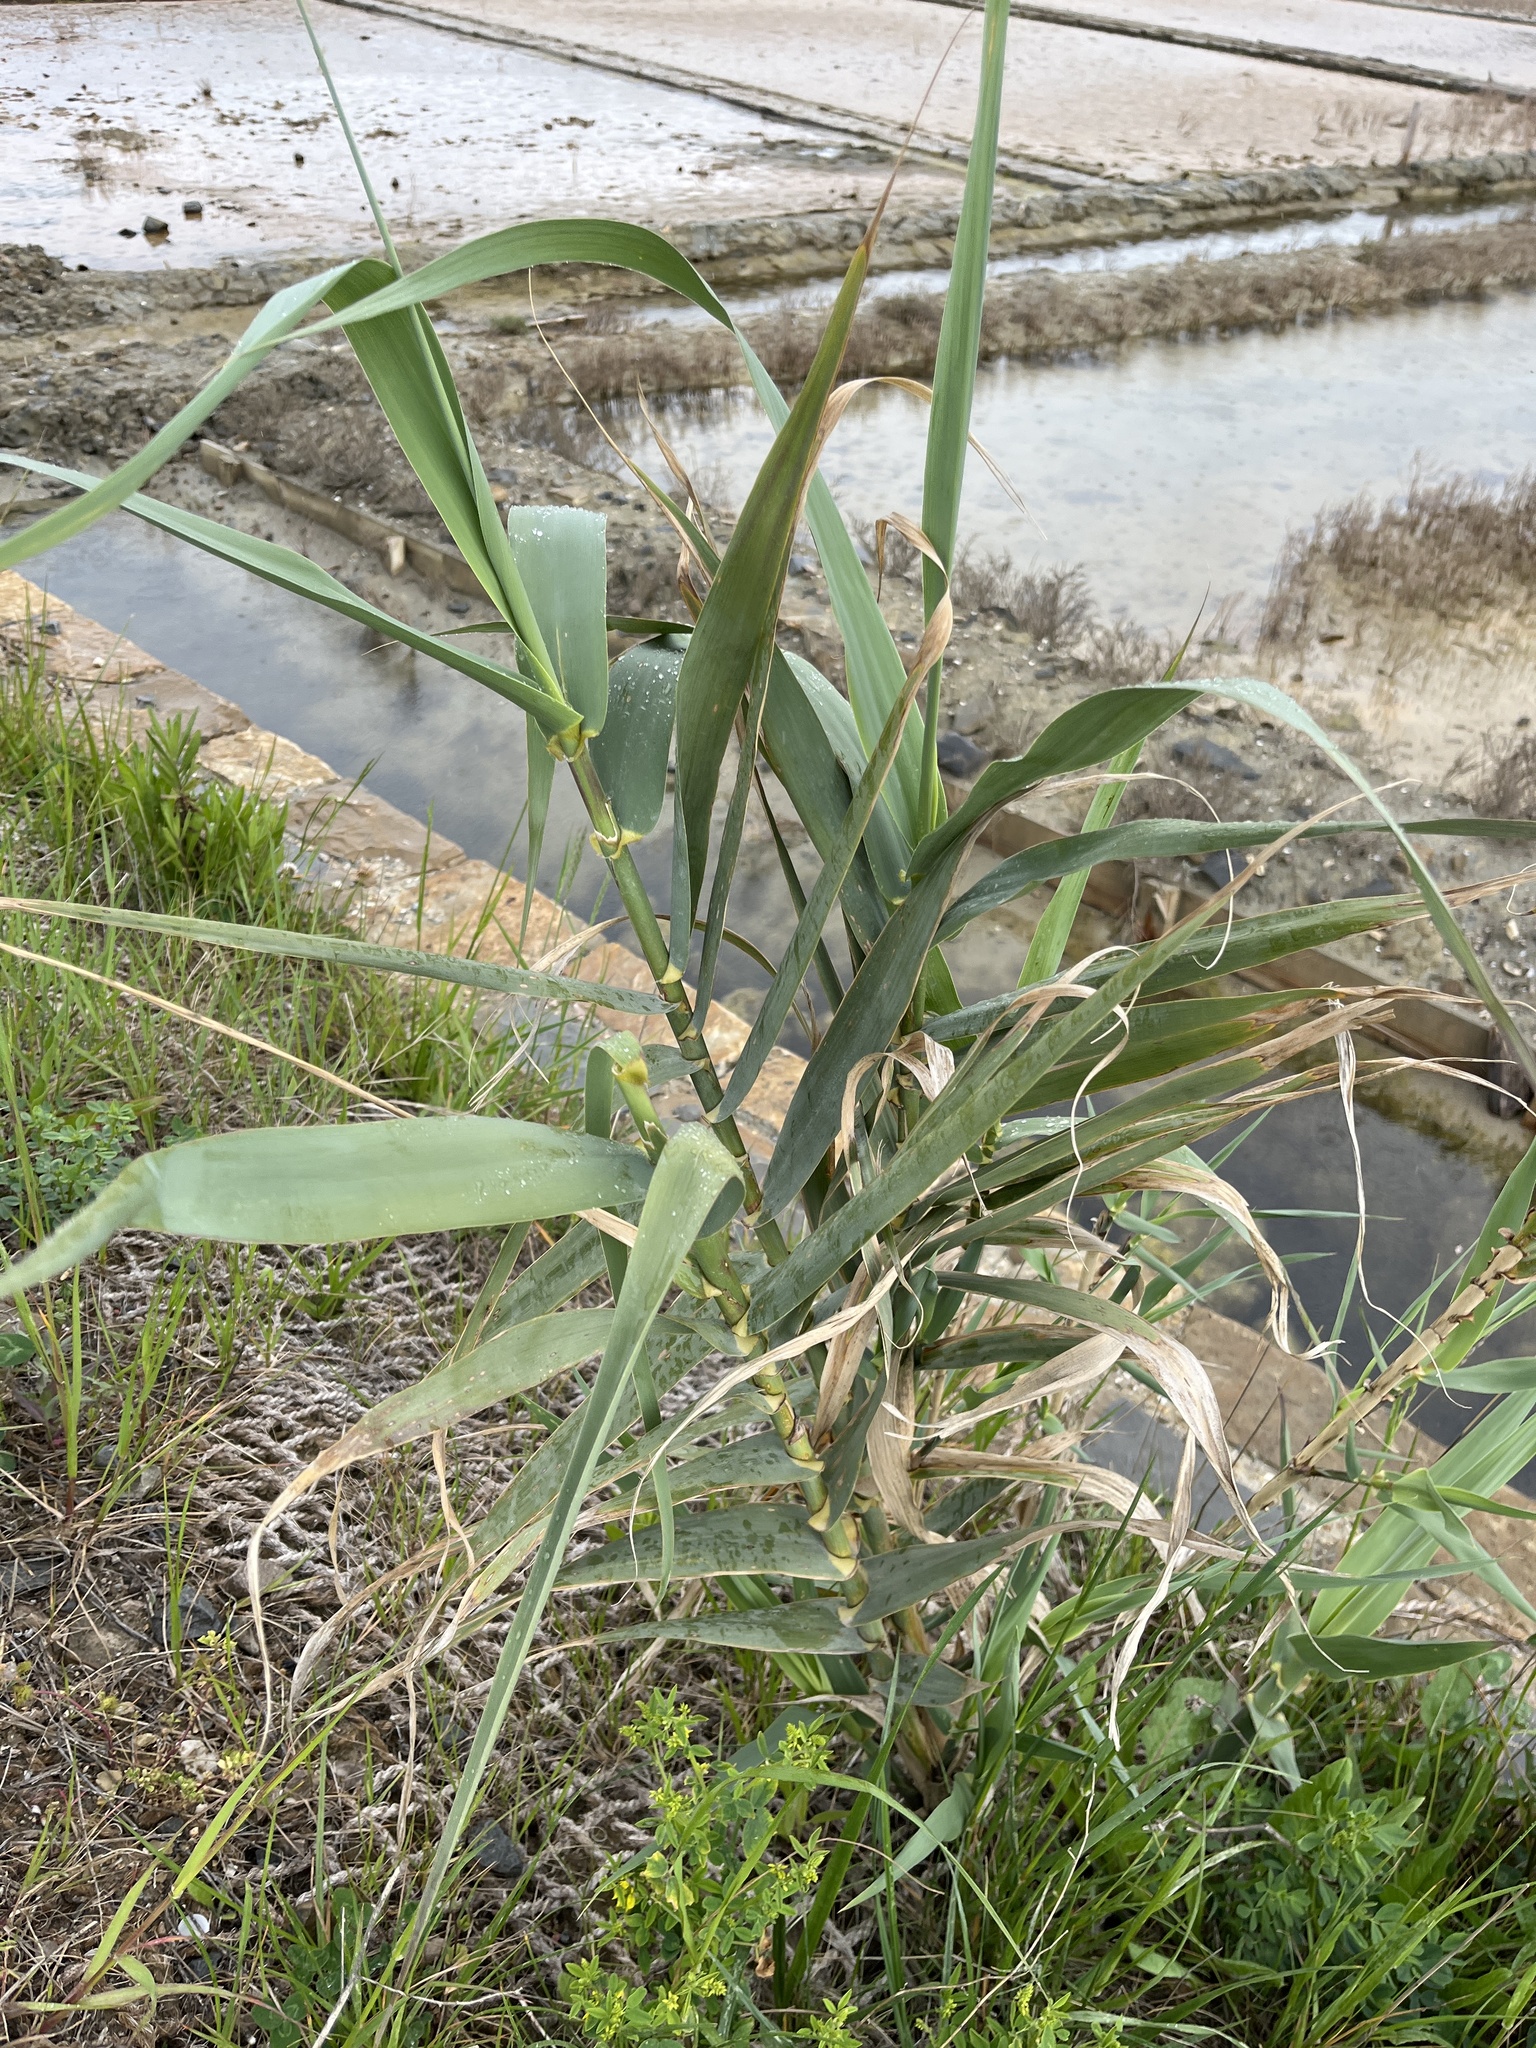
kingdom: Plantae
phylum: Tracheophyta
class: Liliopsida
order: Poales
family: Poaceae
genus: Arundo
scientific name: Arundo donax
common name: Giant reed
